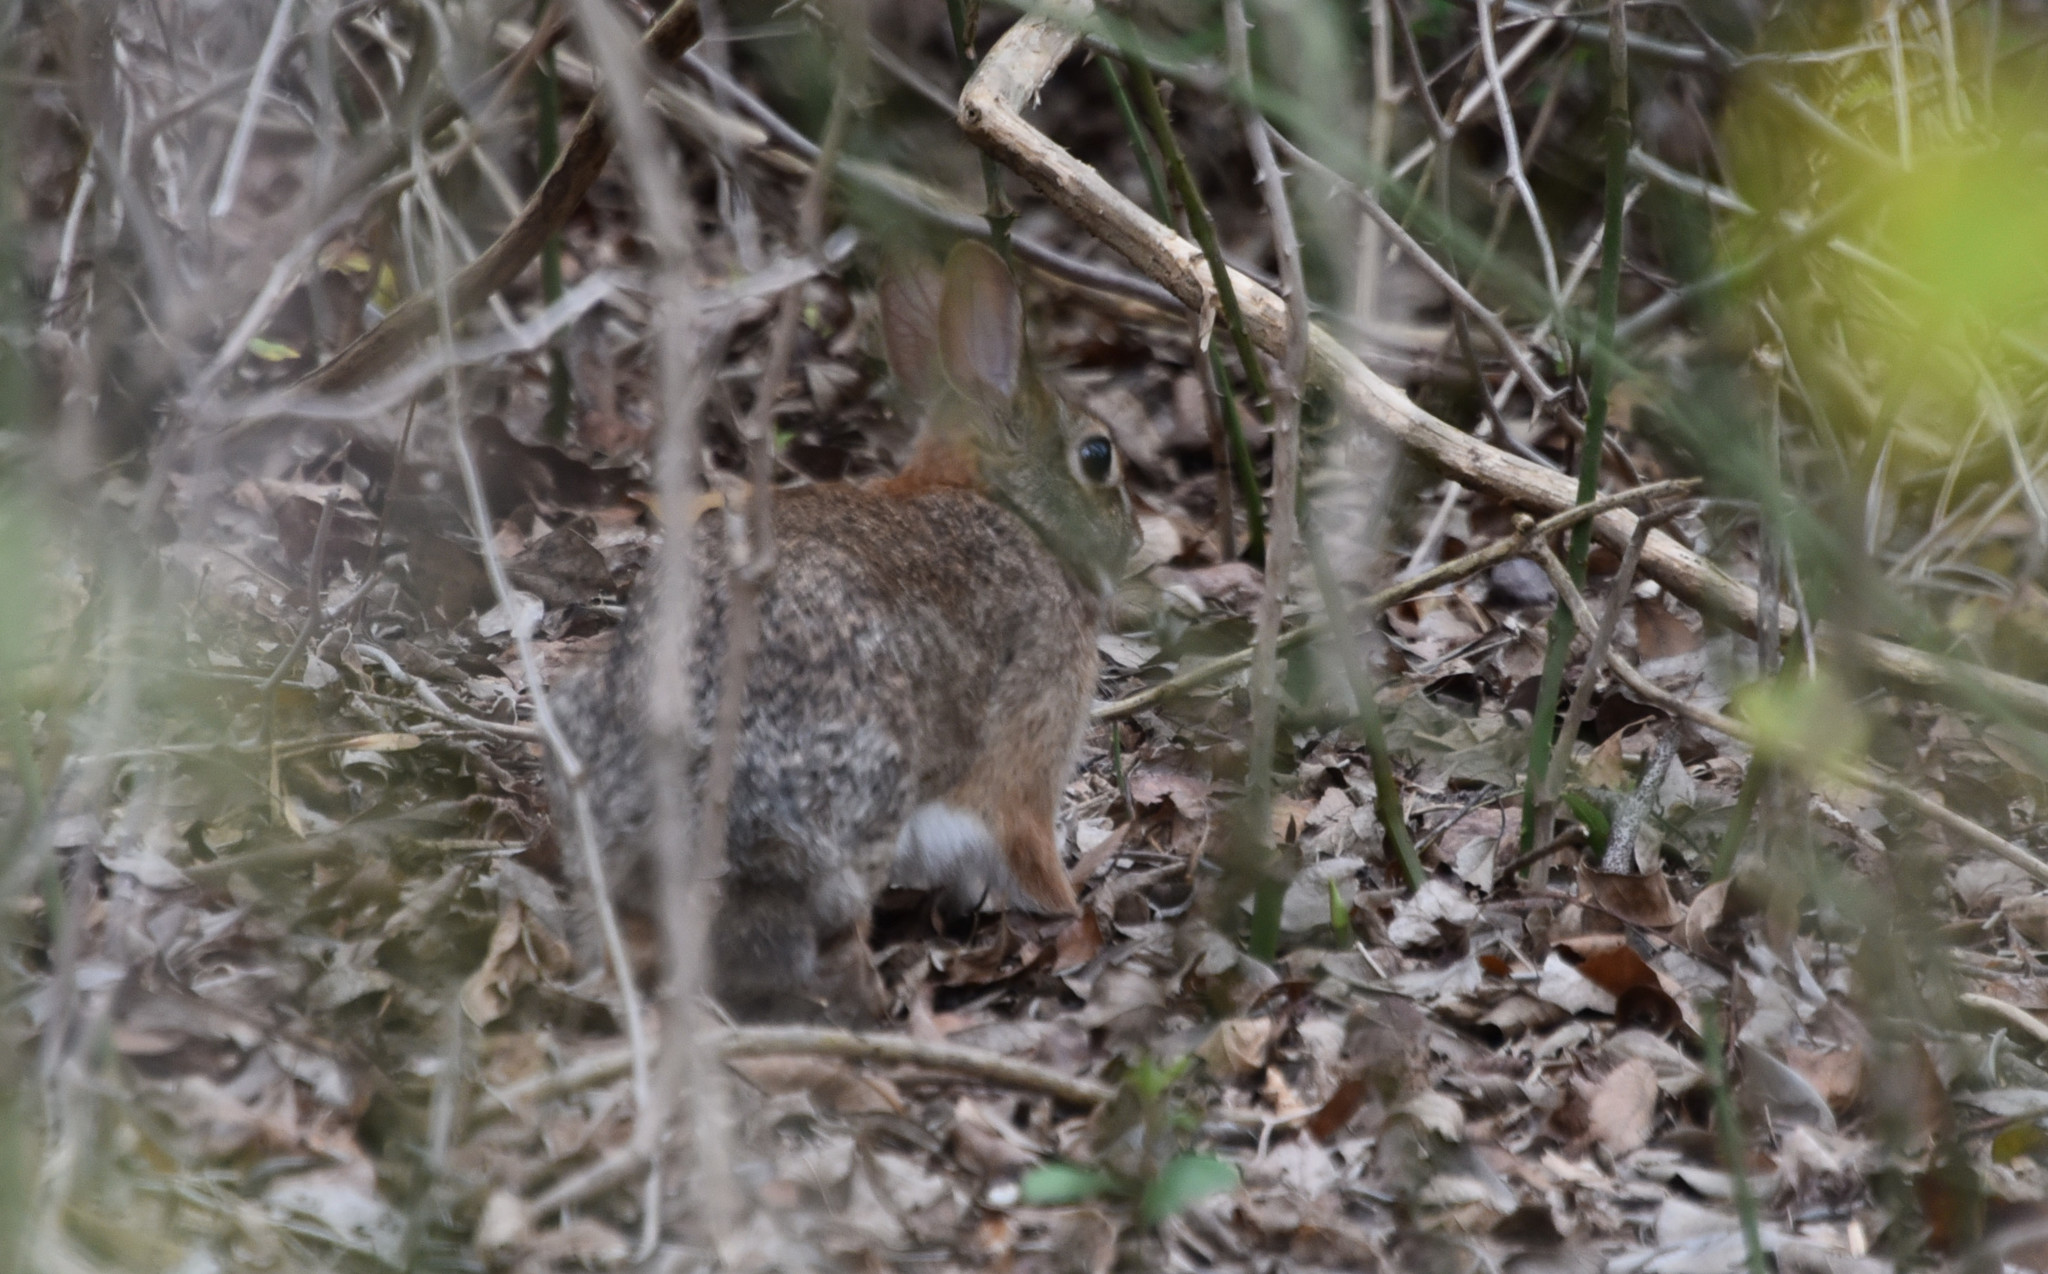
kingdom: Animalia
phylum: Chordata
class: Mammalia
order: Lagomorpha
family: Leporidae
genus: Sylvilagus
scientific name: Sylvilagus floridanus
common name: Eastern cottontail
